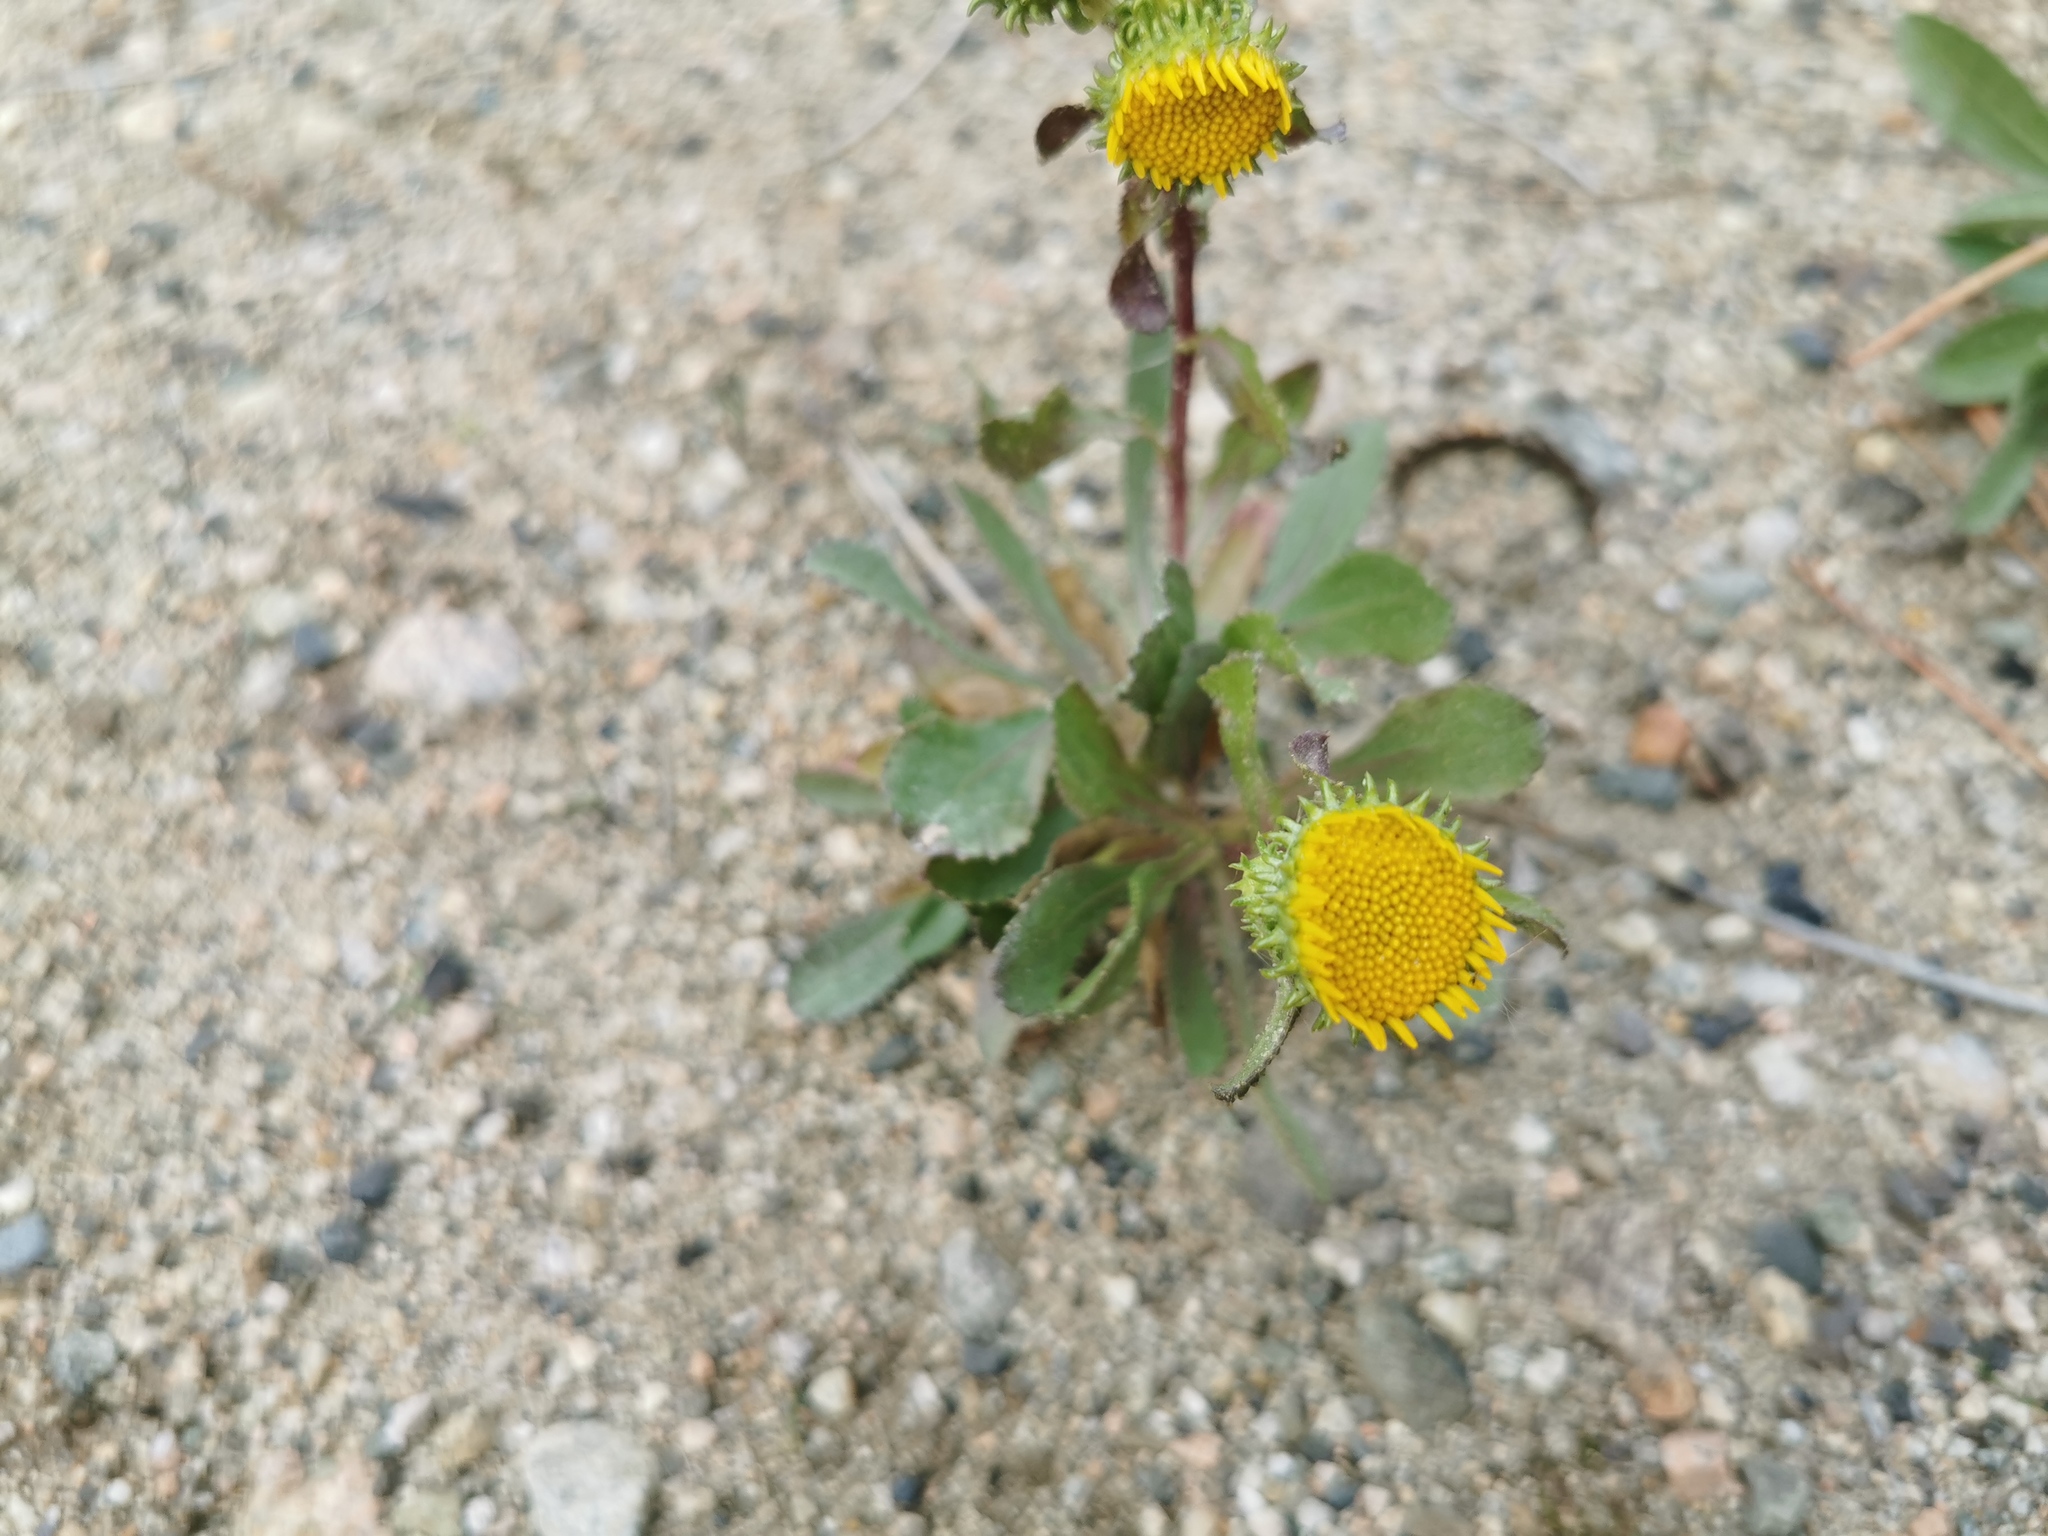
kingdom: Plantae
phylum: Tracheophyta
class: Magnoliopsida
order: Asterales
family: Asteraceae
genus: Grindelia
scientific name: Grindelia squarrosa
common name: Curly-cup gumweed
